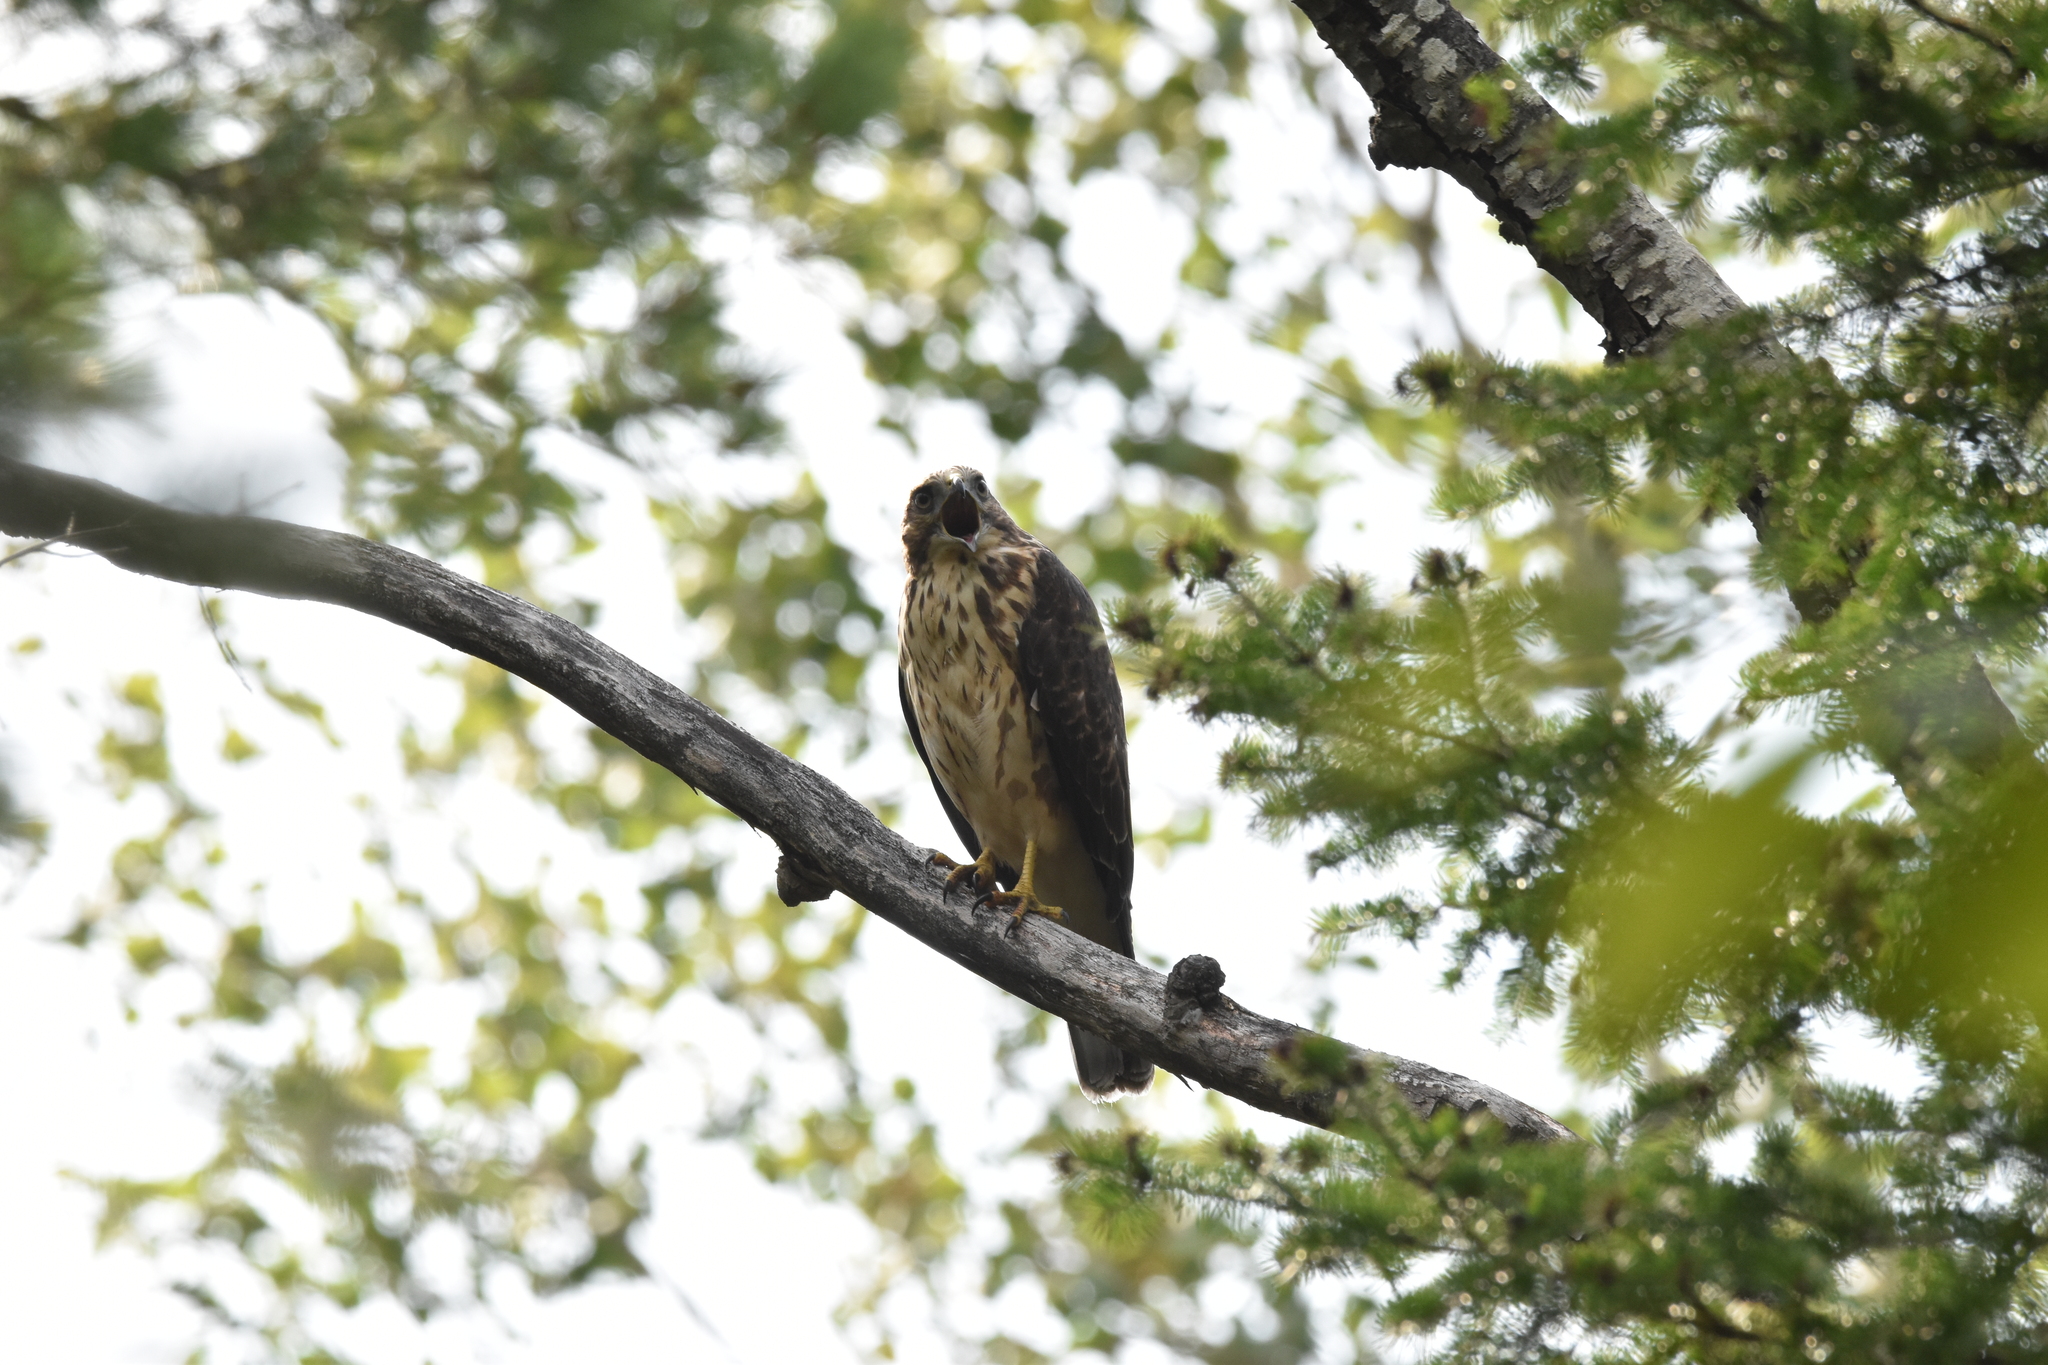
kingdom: Animalia
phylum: Chordata
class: Aves
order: Accipitriformes
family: Accipitridae
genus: Buteo
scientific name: Buteo platypterus
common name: Broad-winged hawk
